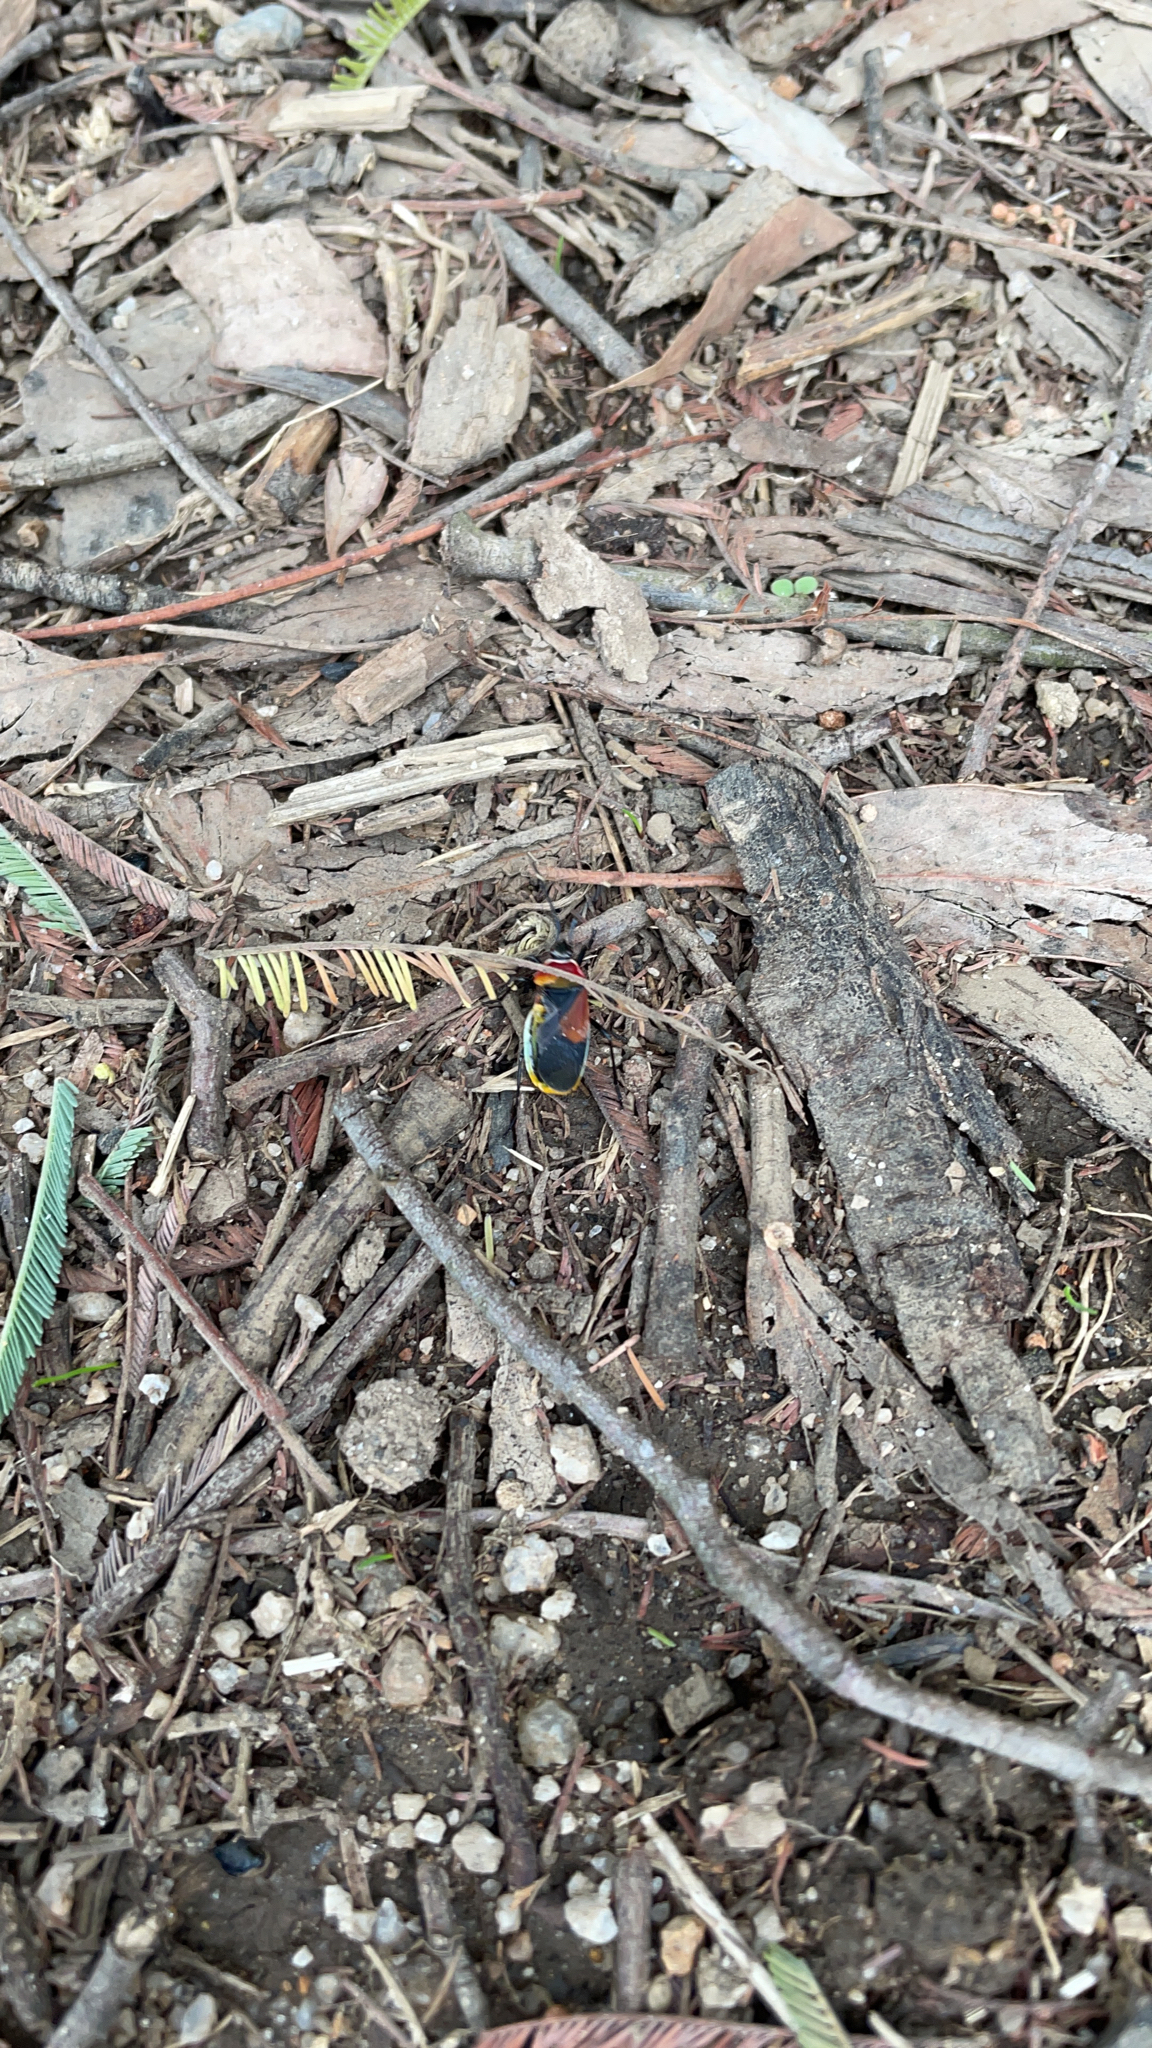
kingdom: Animalia
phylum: Arthropoda
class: Insecta
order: Hemiptera
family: Pyrrhocoridae
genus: Dindymus
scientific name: Dindymus
